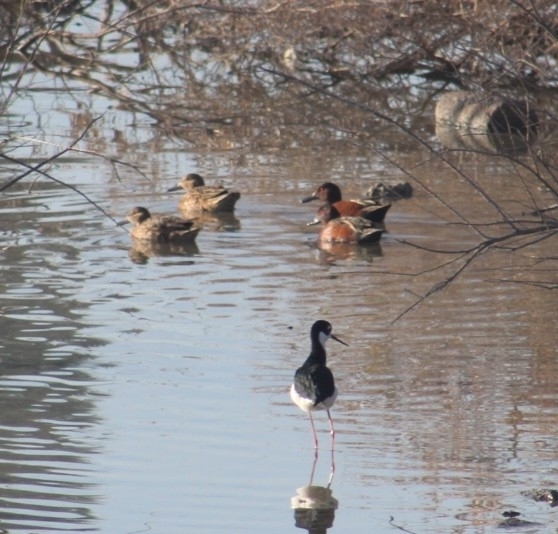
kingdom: Animalia
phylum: Chordata
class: Aves
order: Anseriformes
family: Anatidae
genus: Spatula
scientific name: Spatula cyanoptera
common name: Cinnamon teal
